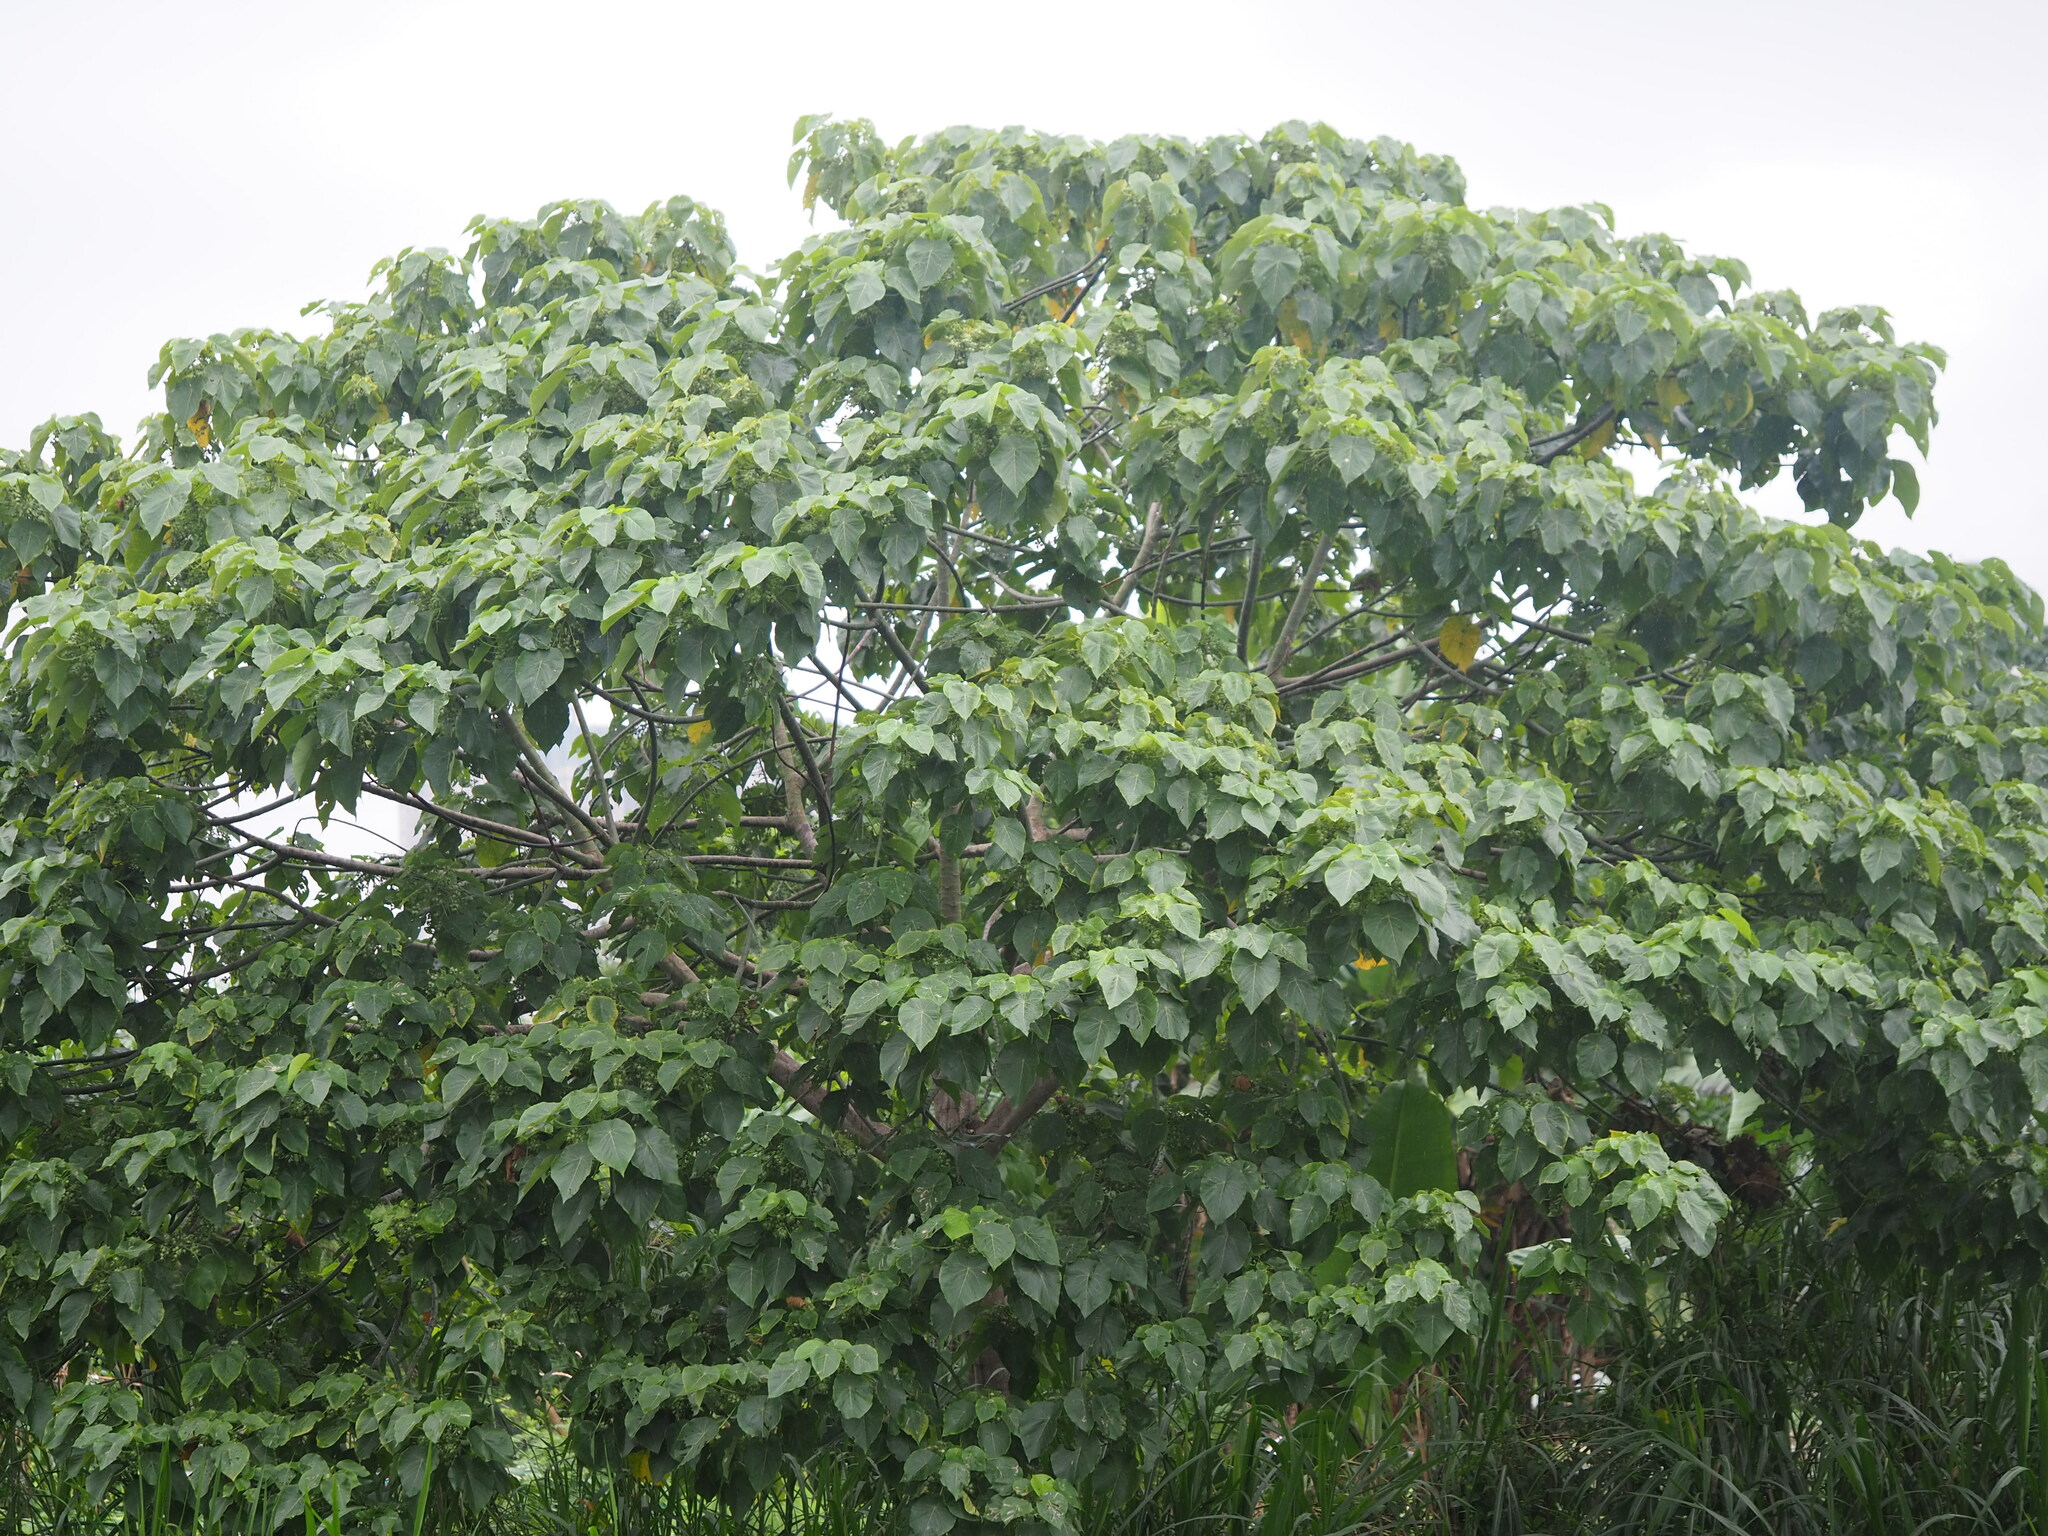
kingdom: Plantae
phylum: Tracheophyta
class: Magnoliopsida
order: Malpighiales
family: Euphorbiaceae
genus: Macaranga
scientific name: Macaranga tanarius
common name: Parasol leaf tree
